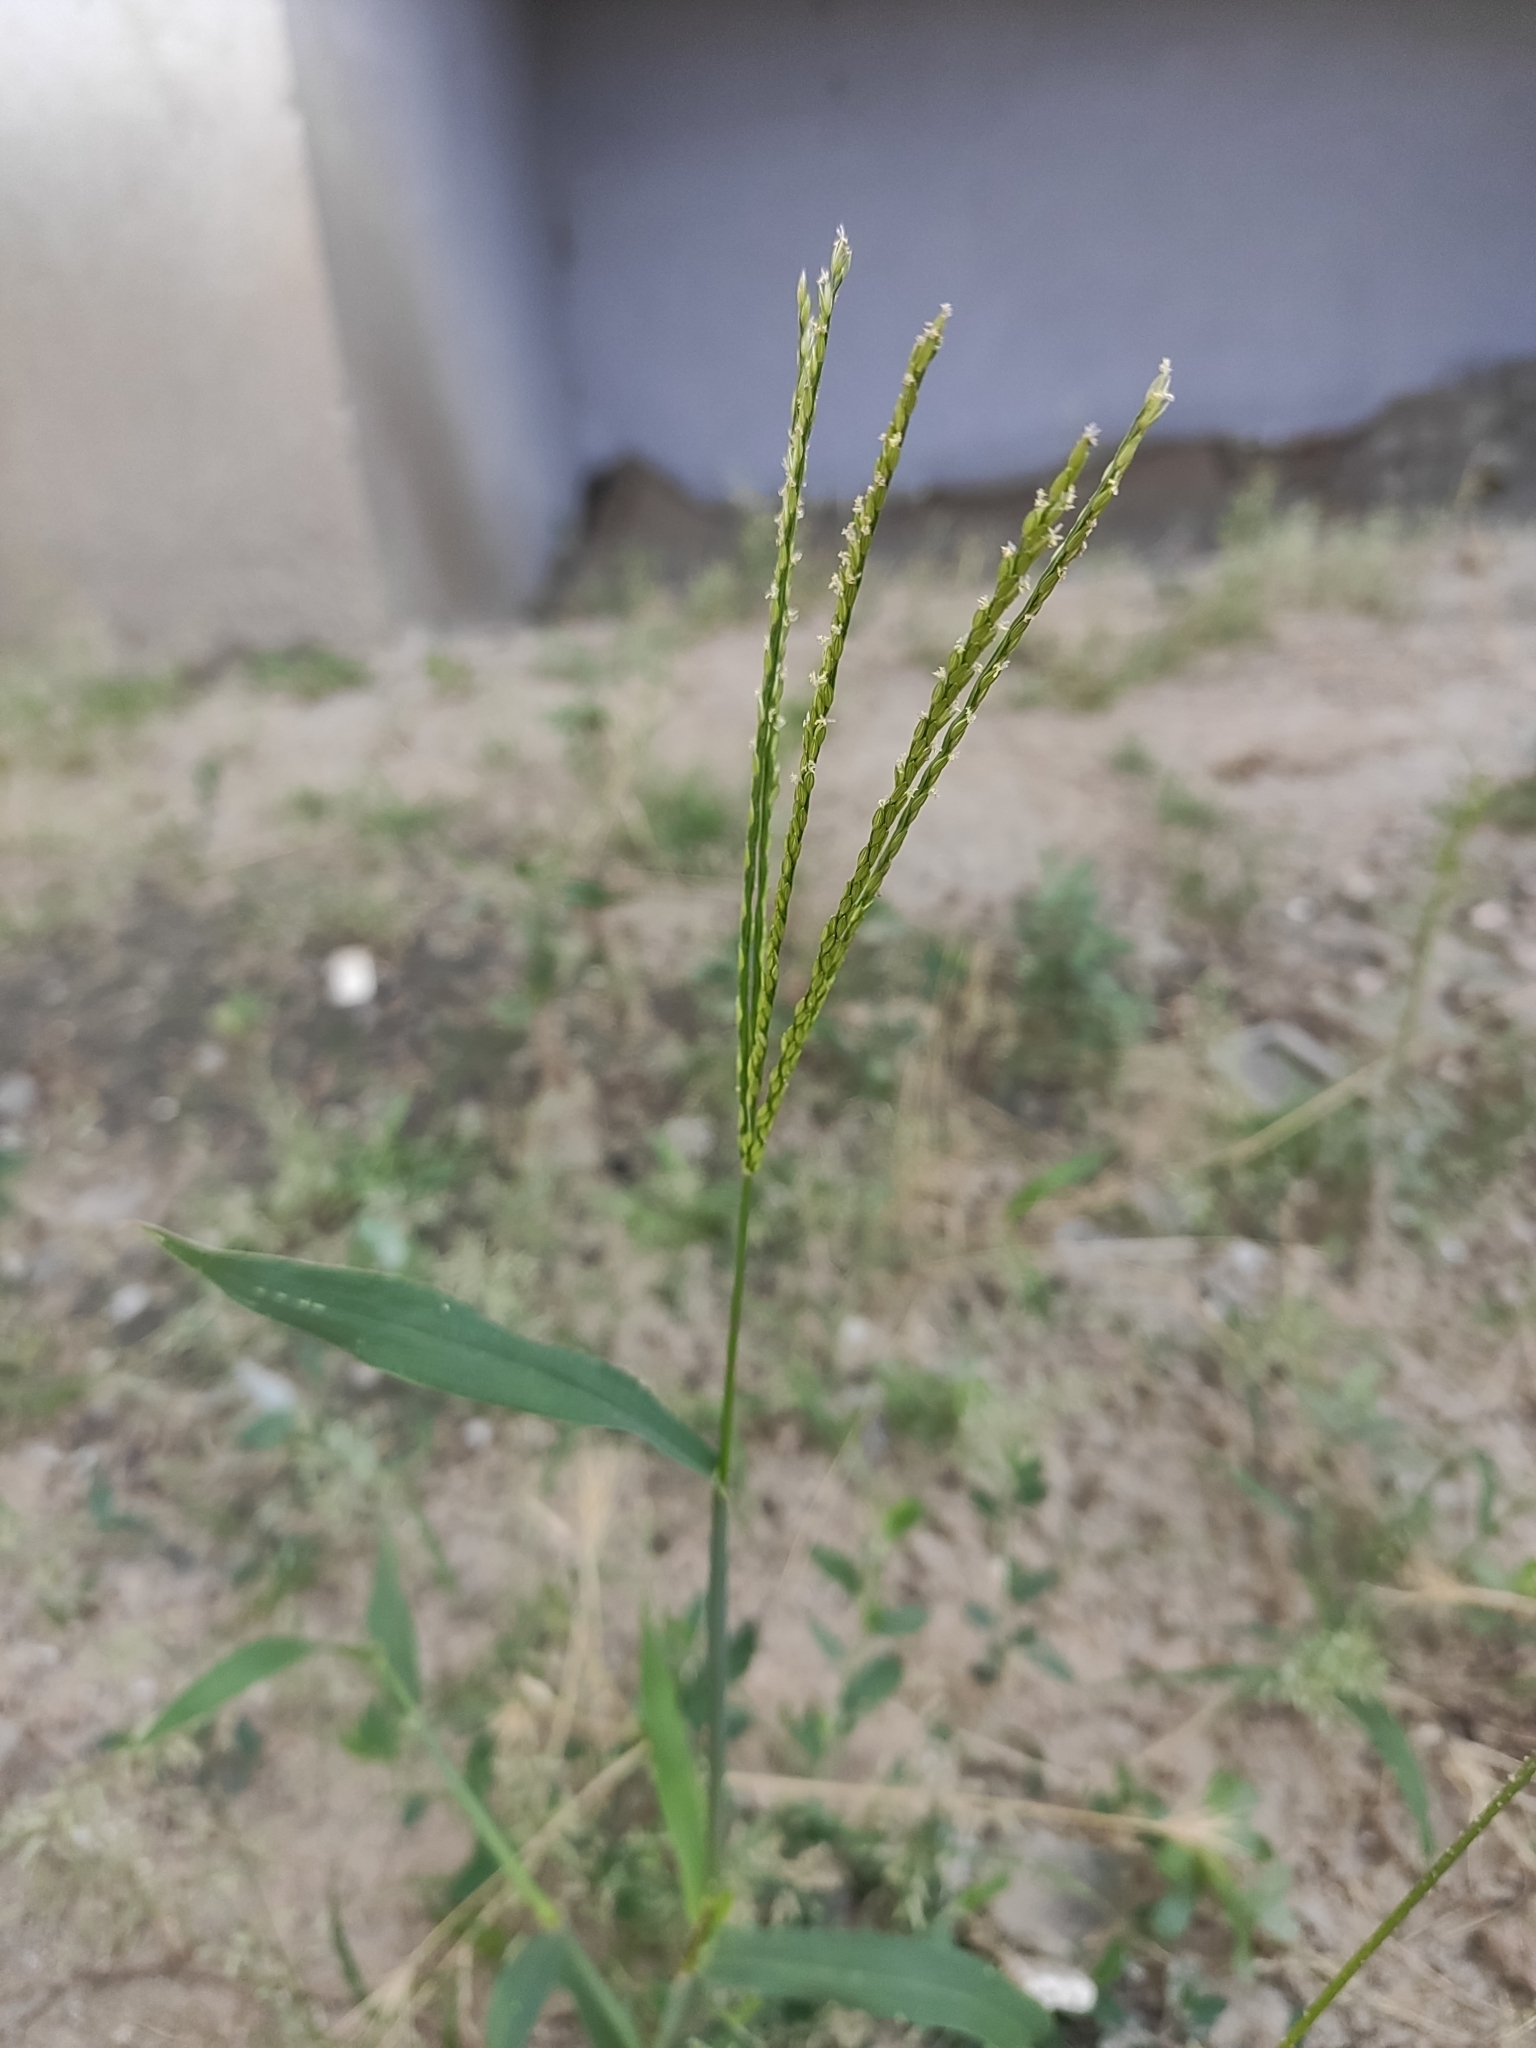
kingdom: Plantae
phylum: Tracheophyta
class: Liliopsida
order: Poales
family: Poaceae
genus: Digitaria
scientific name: Digitaria sanguinalis
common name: Hairy crabgrass
